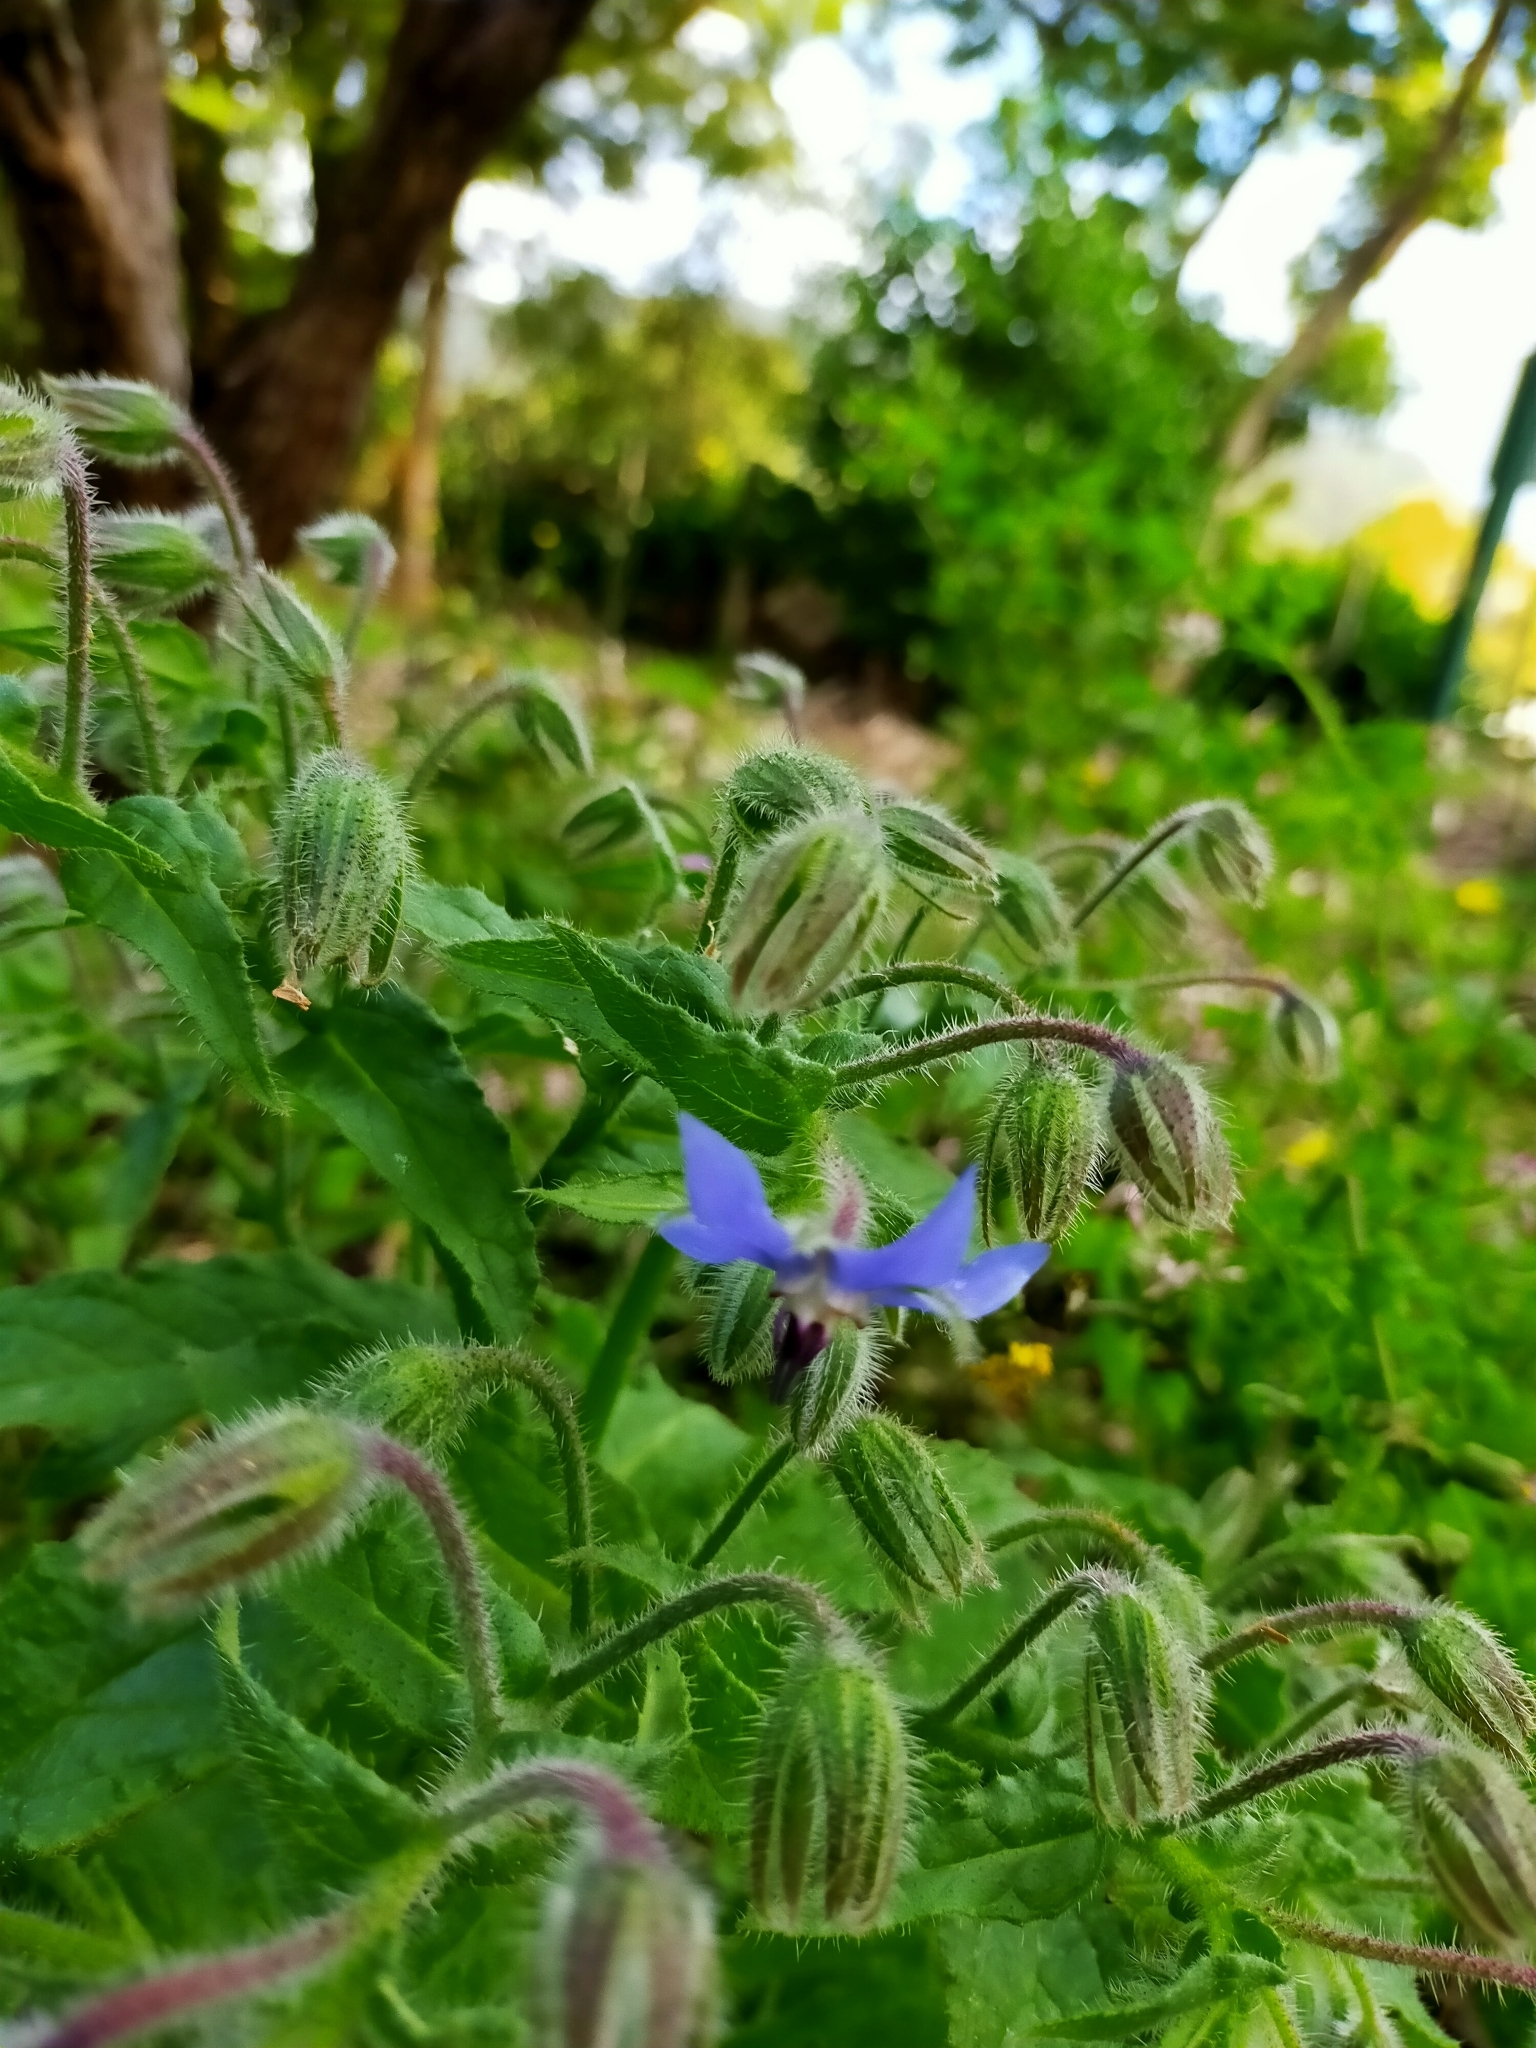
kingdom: Plantae
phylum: Tracheophyta
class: Magnoliopsida
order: Boraginales
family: Boraginaceae
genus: Borago
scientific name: Borago officinalis
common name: Borage
